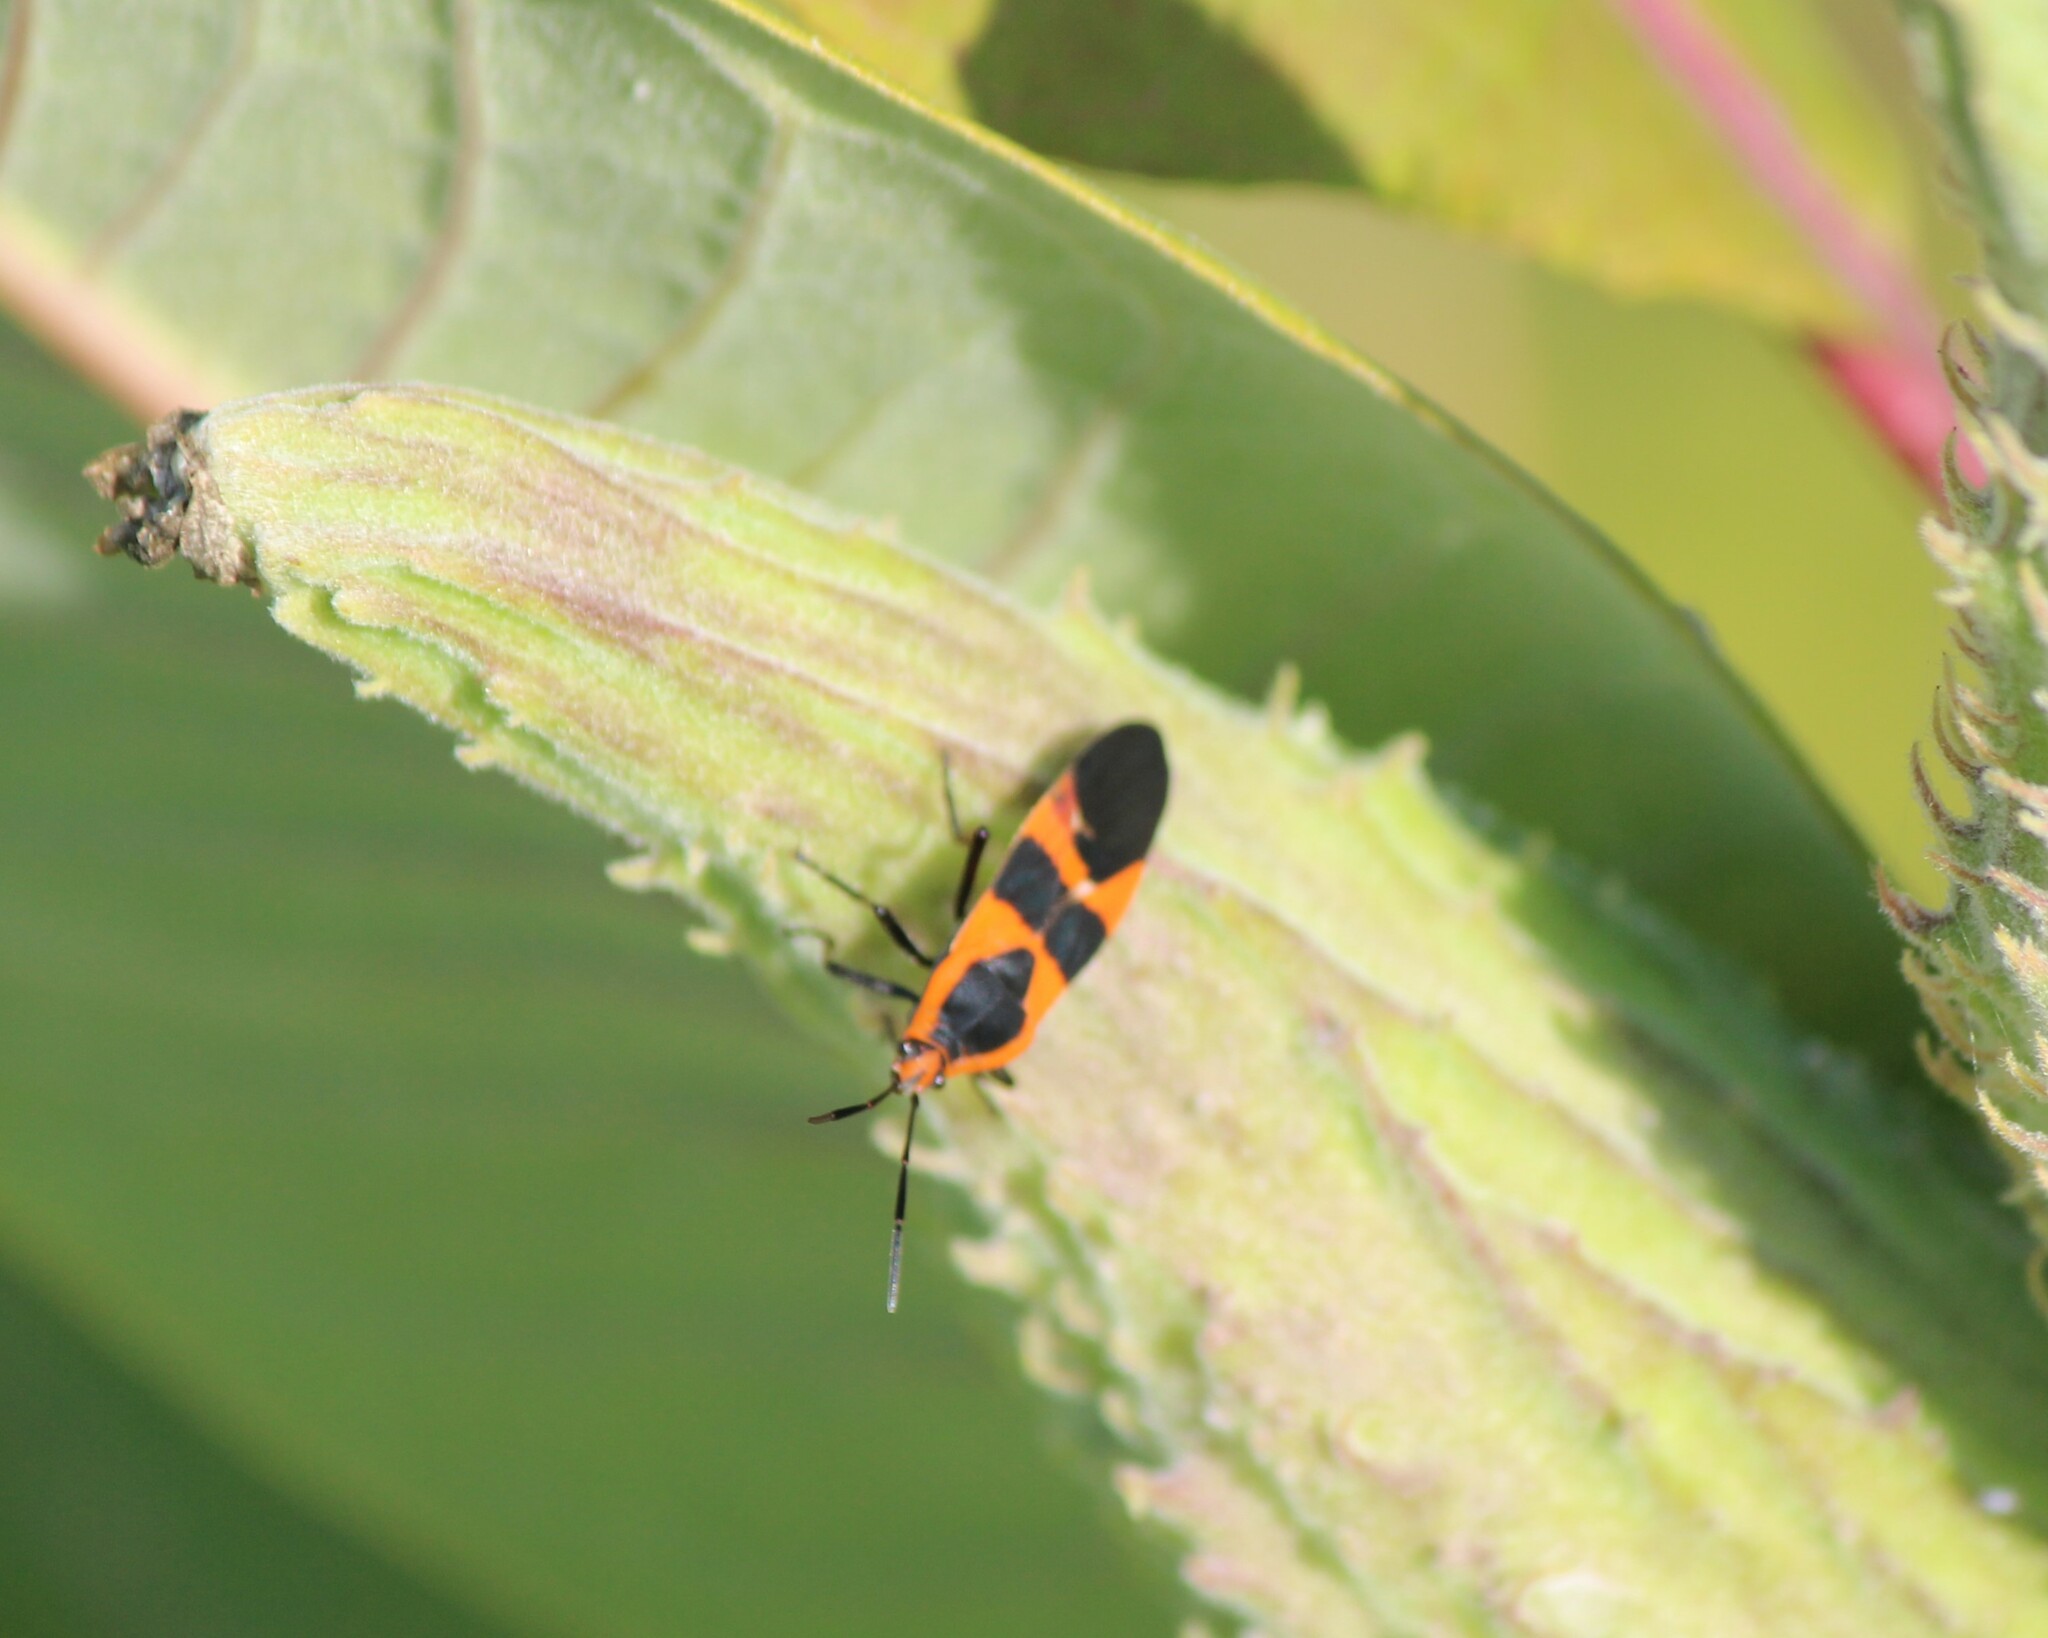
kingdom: Animalia
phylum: Arthropoda
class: Insecta
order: Hemiptera
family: Lygaeidae
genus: Oncopeltus
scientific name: Oncopeltus fasciatus
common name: Large milkweed bug
